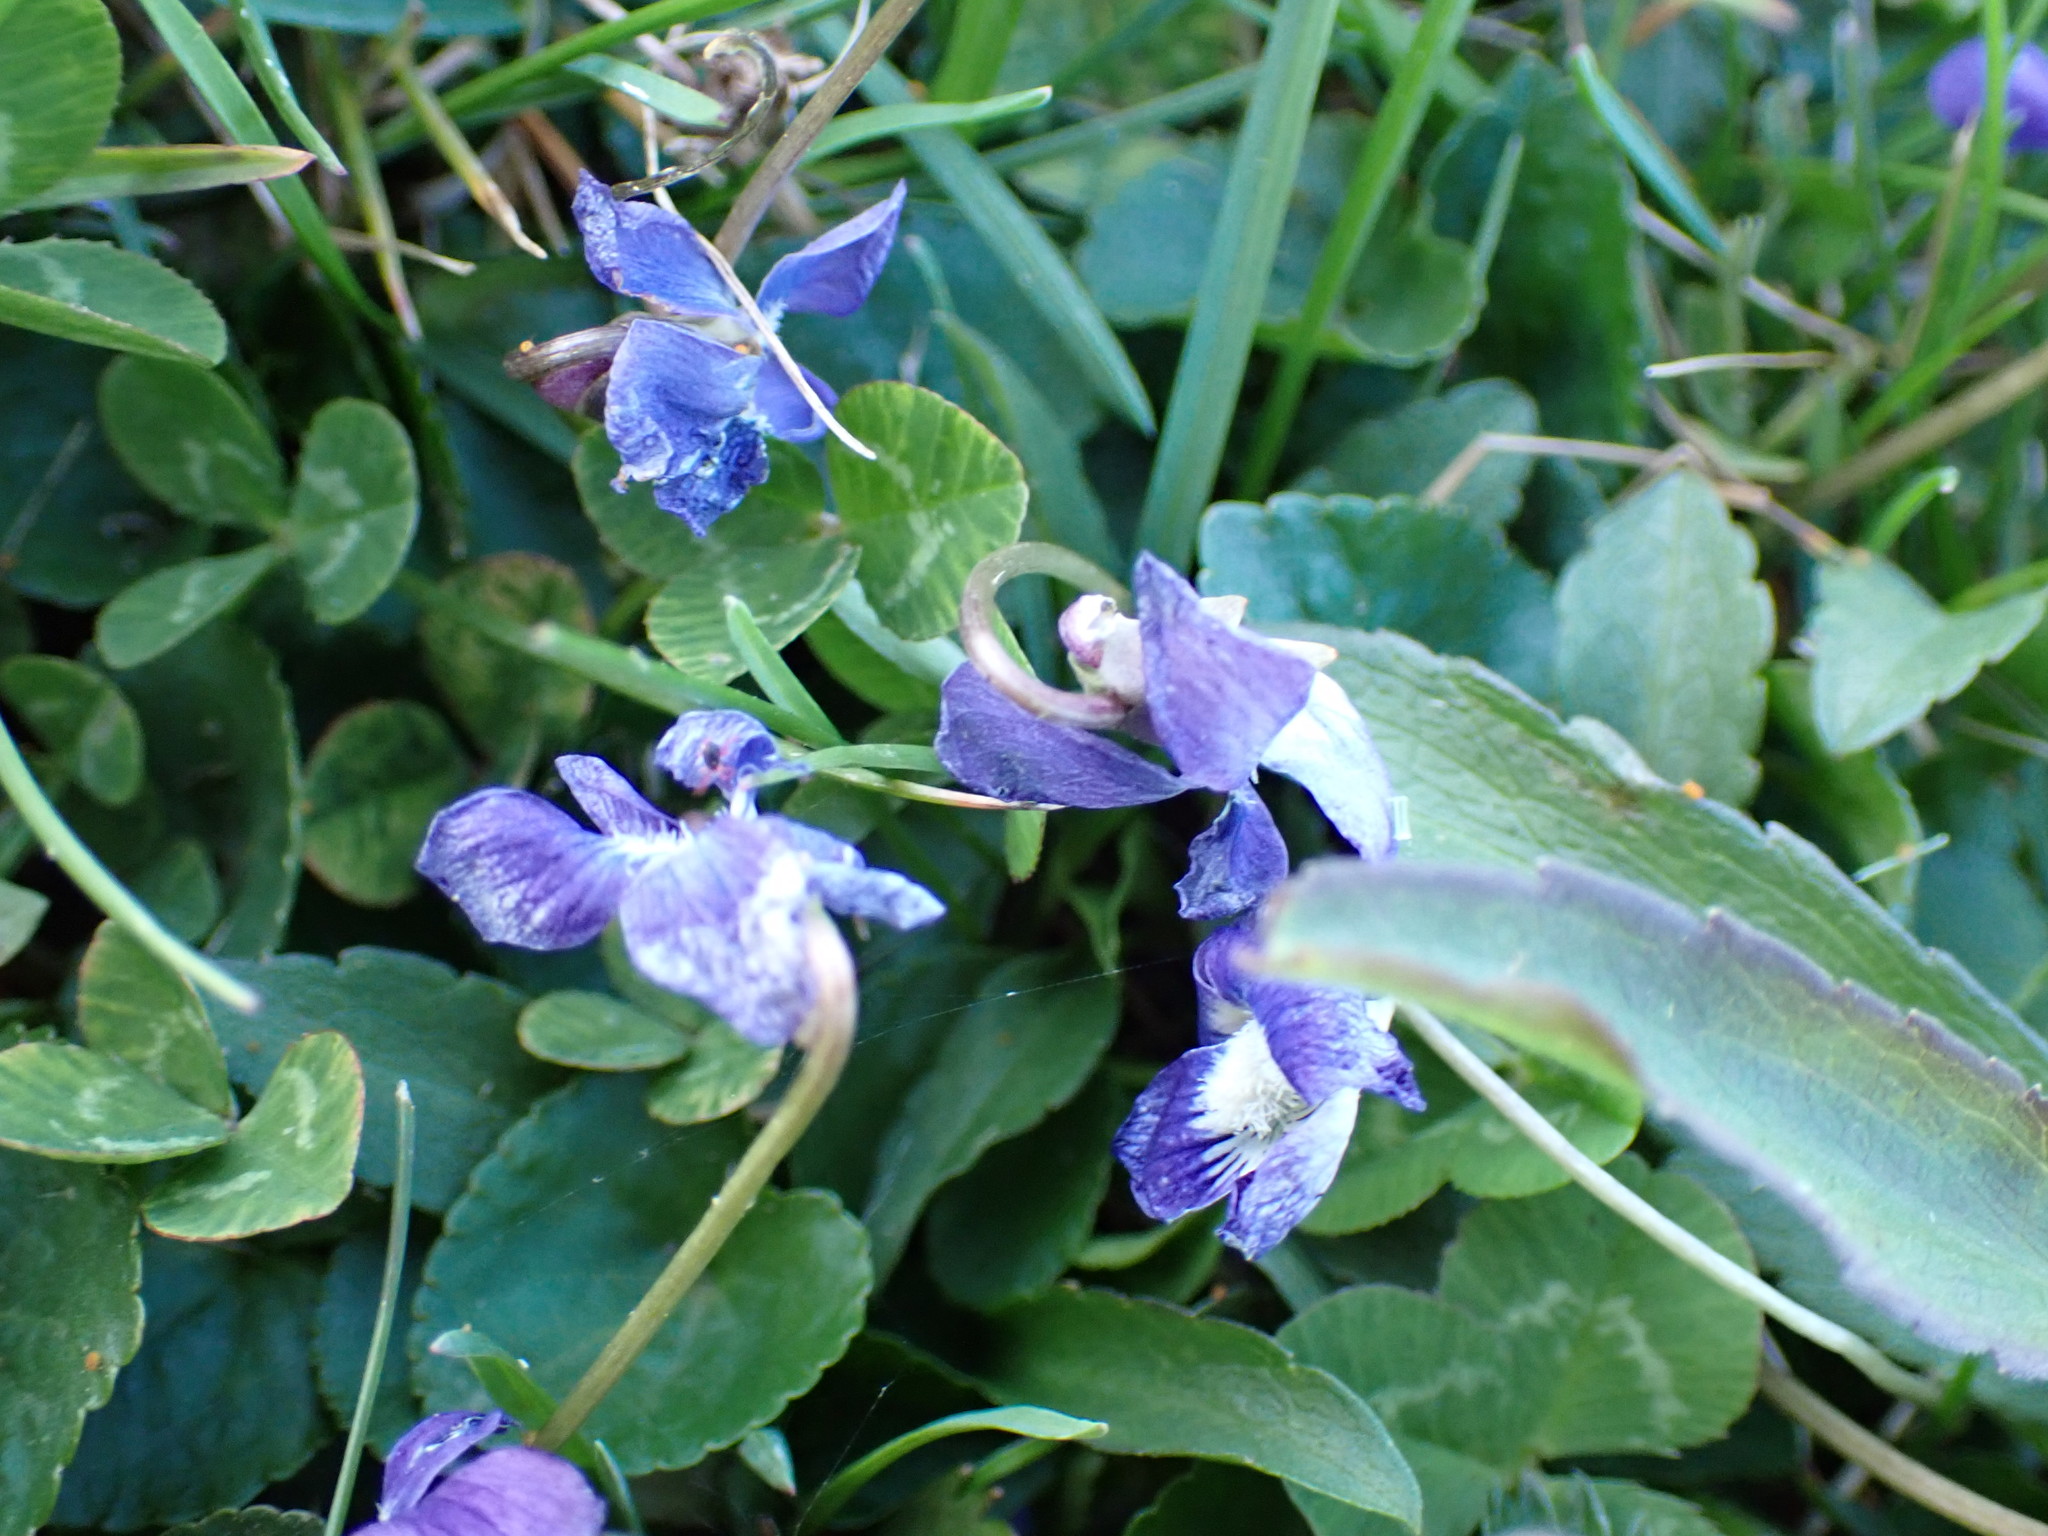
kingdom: Plantae
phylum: Tracheophyta
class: Magnoliopsida
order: Malpighiales
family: Violaceae
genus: Viola
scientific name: Viola sororia
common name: Dooryard violet
